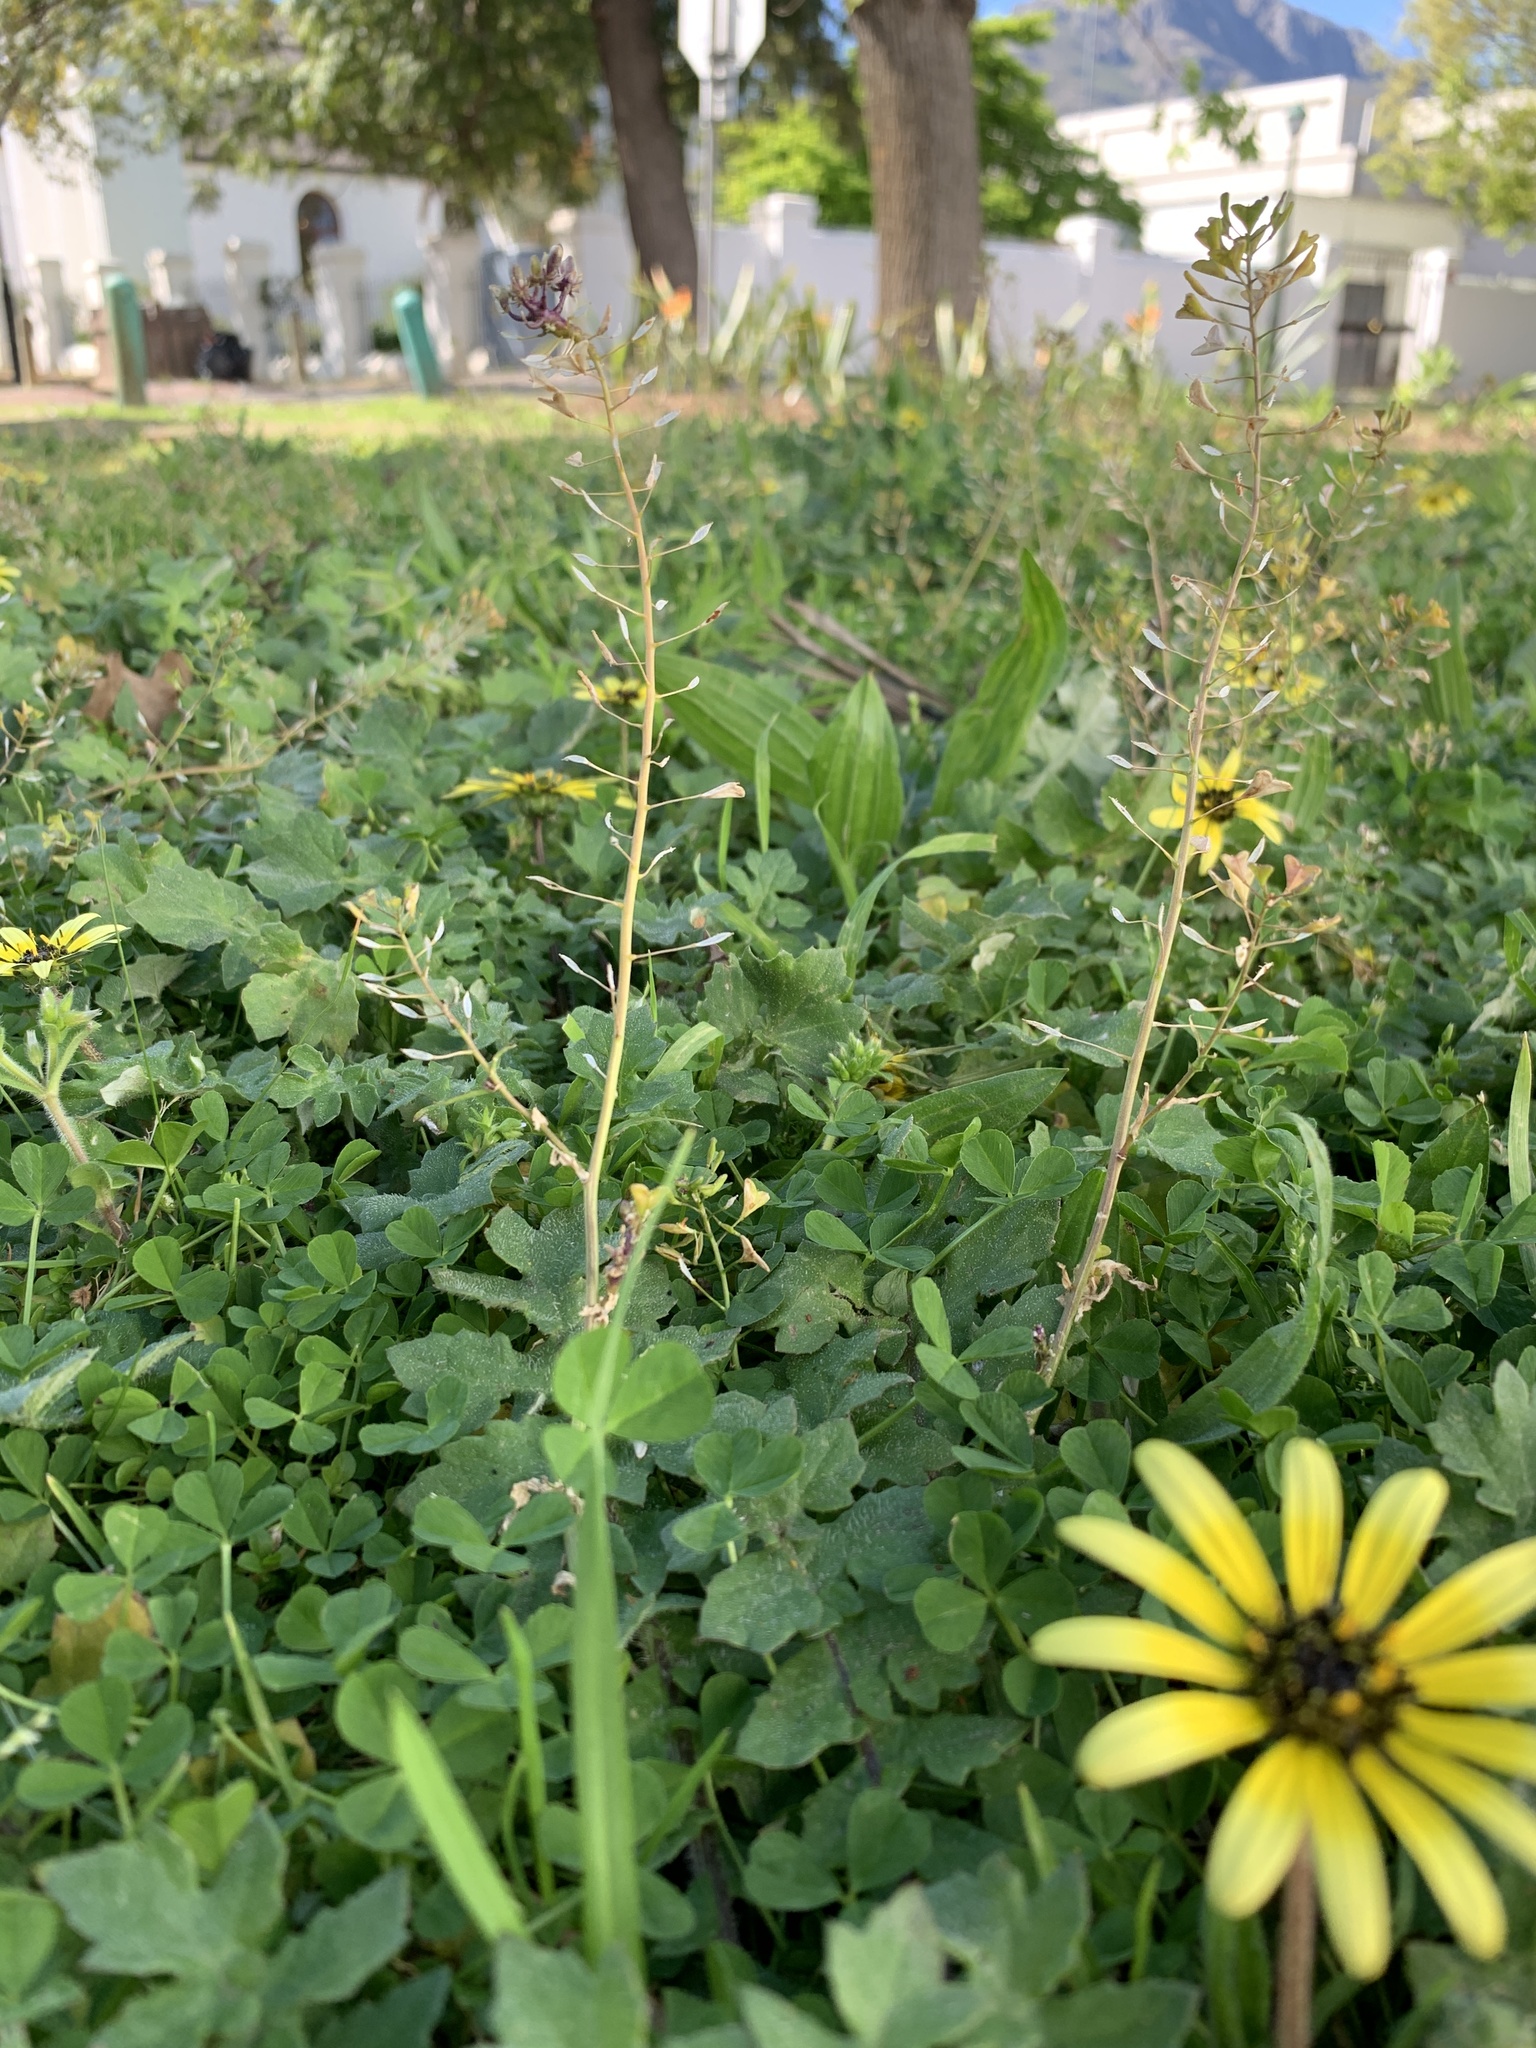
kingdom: Plantae
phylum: Tracheophyta
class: Magnoliopsida
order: Brassicales
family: Brassicaceae
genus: Capsella
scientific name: Capsella bursa-pastoris
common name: Shepherd's purse
